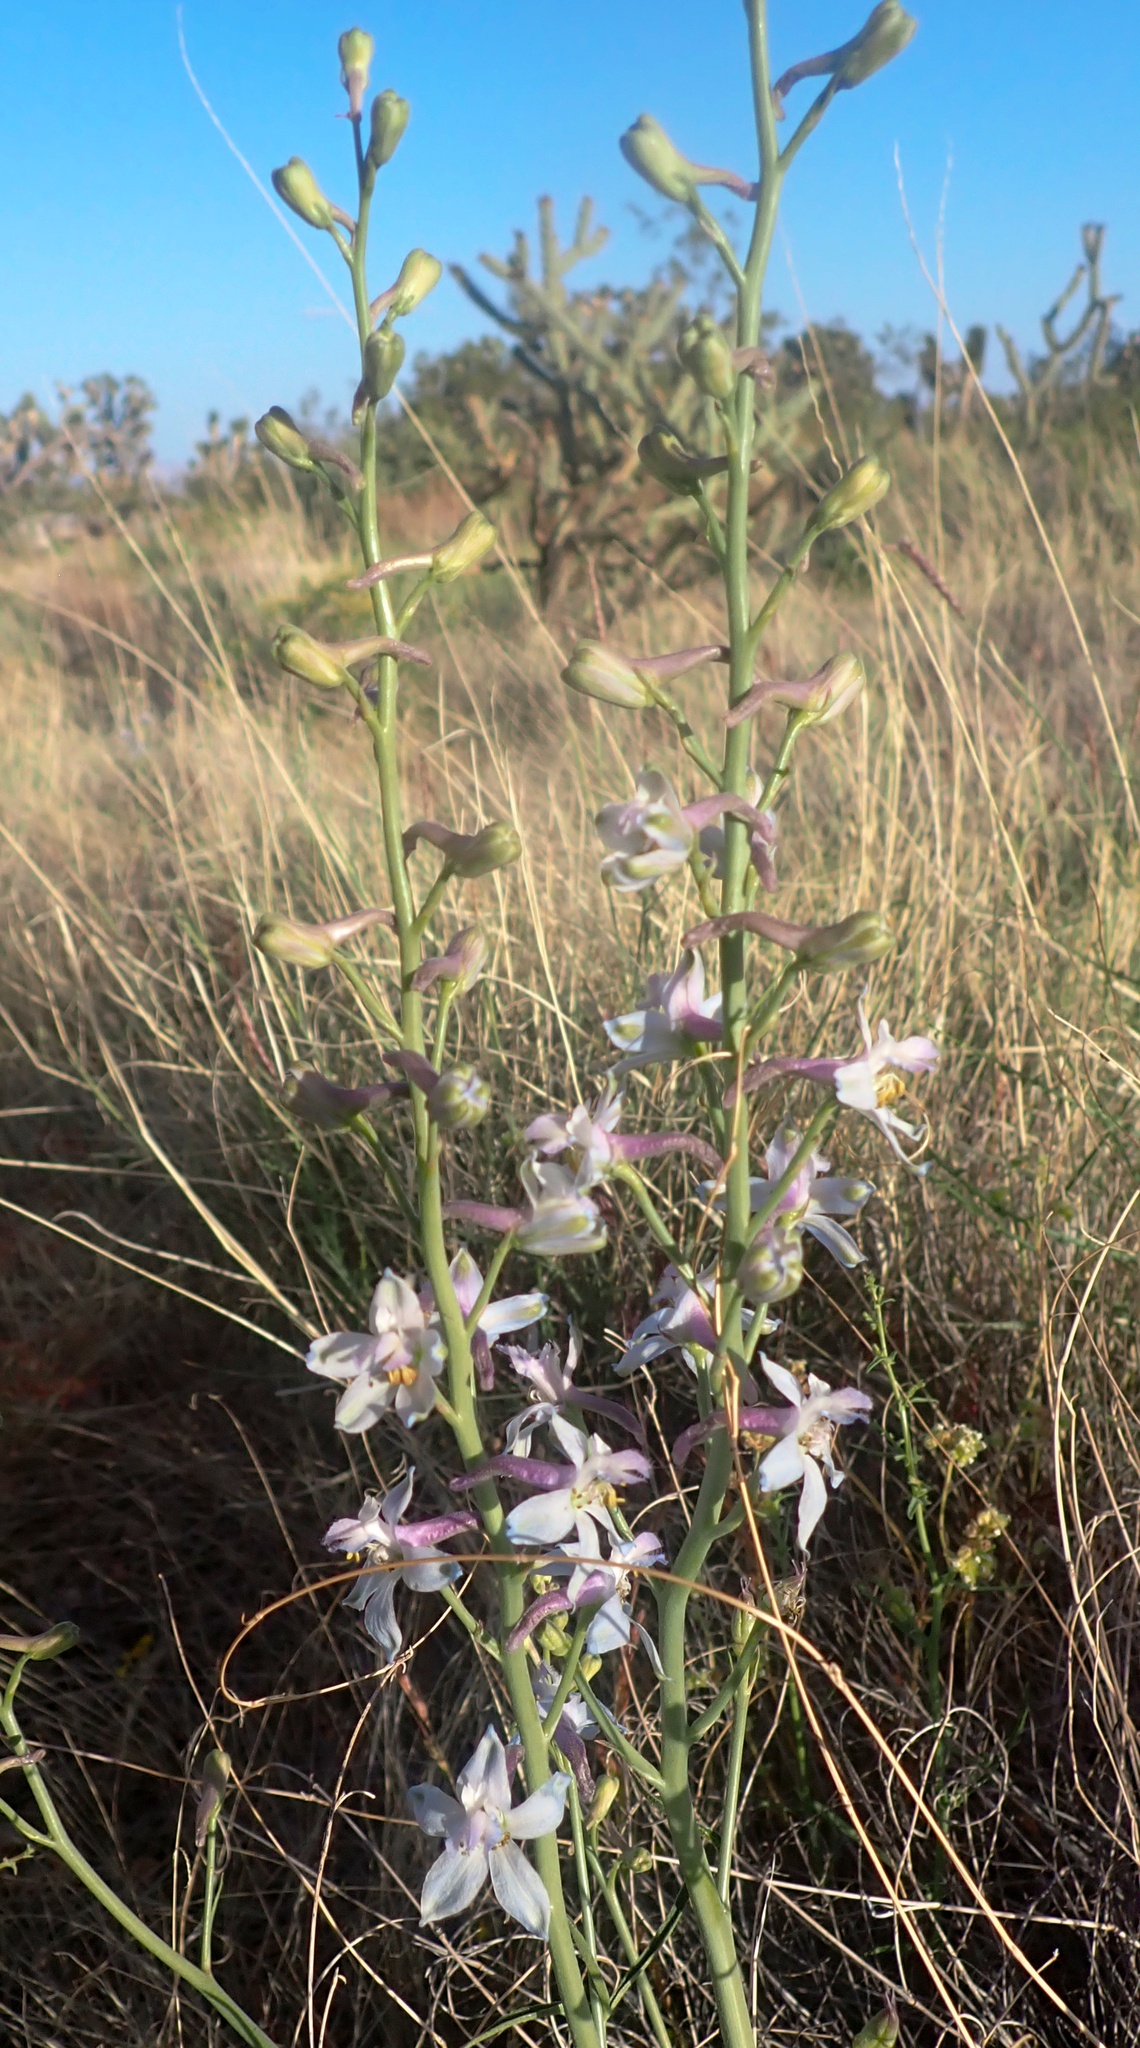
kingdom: Plantae
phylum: Tracheophyta
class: Magnoliopsida
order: Ranunculales
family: Ranunculaceae
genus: Delphinium
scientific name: Delphinium parishii
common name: Apache larkspur
